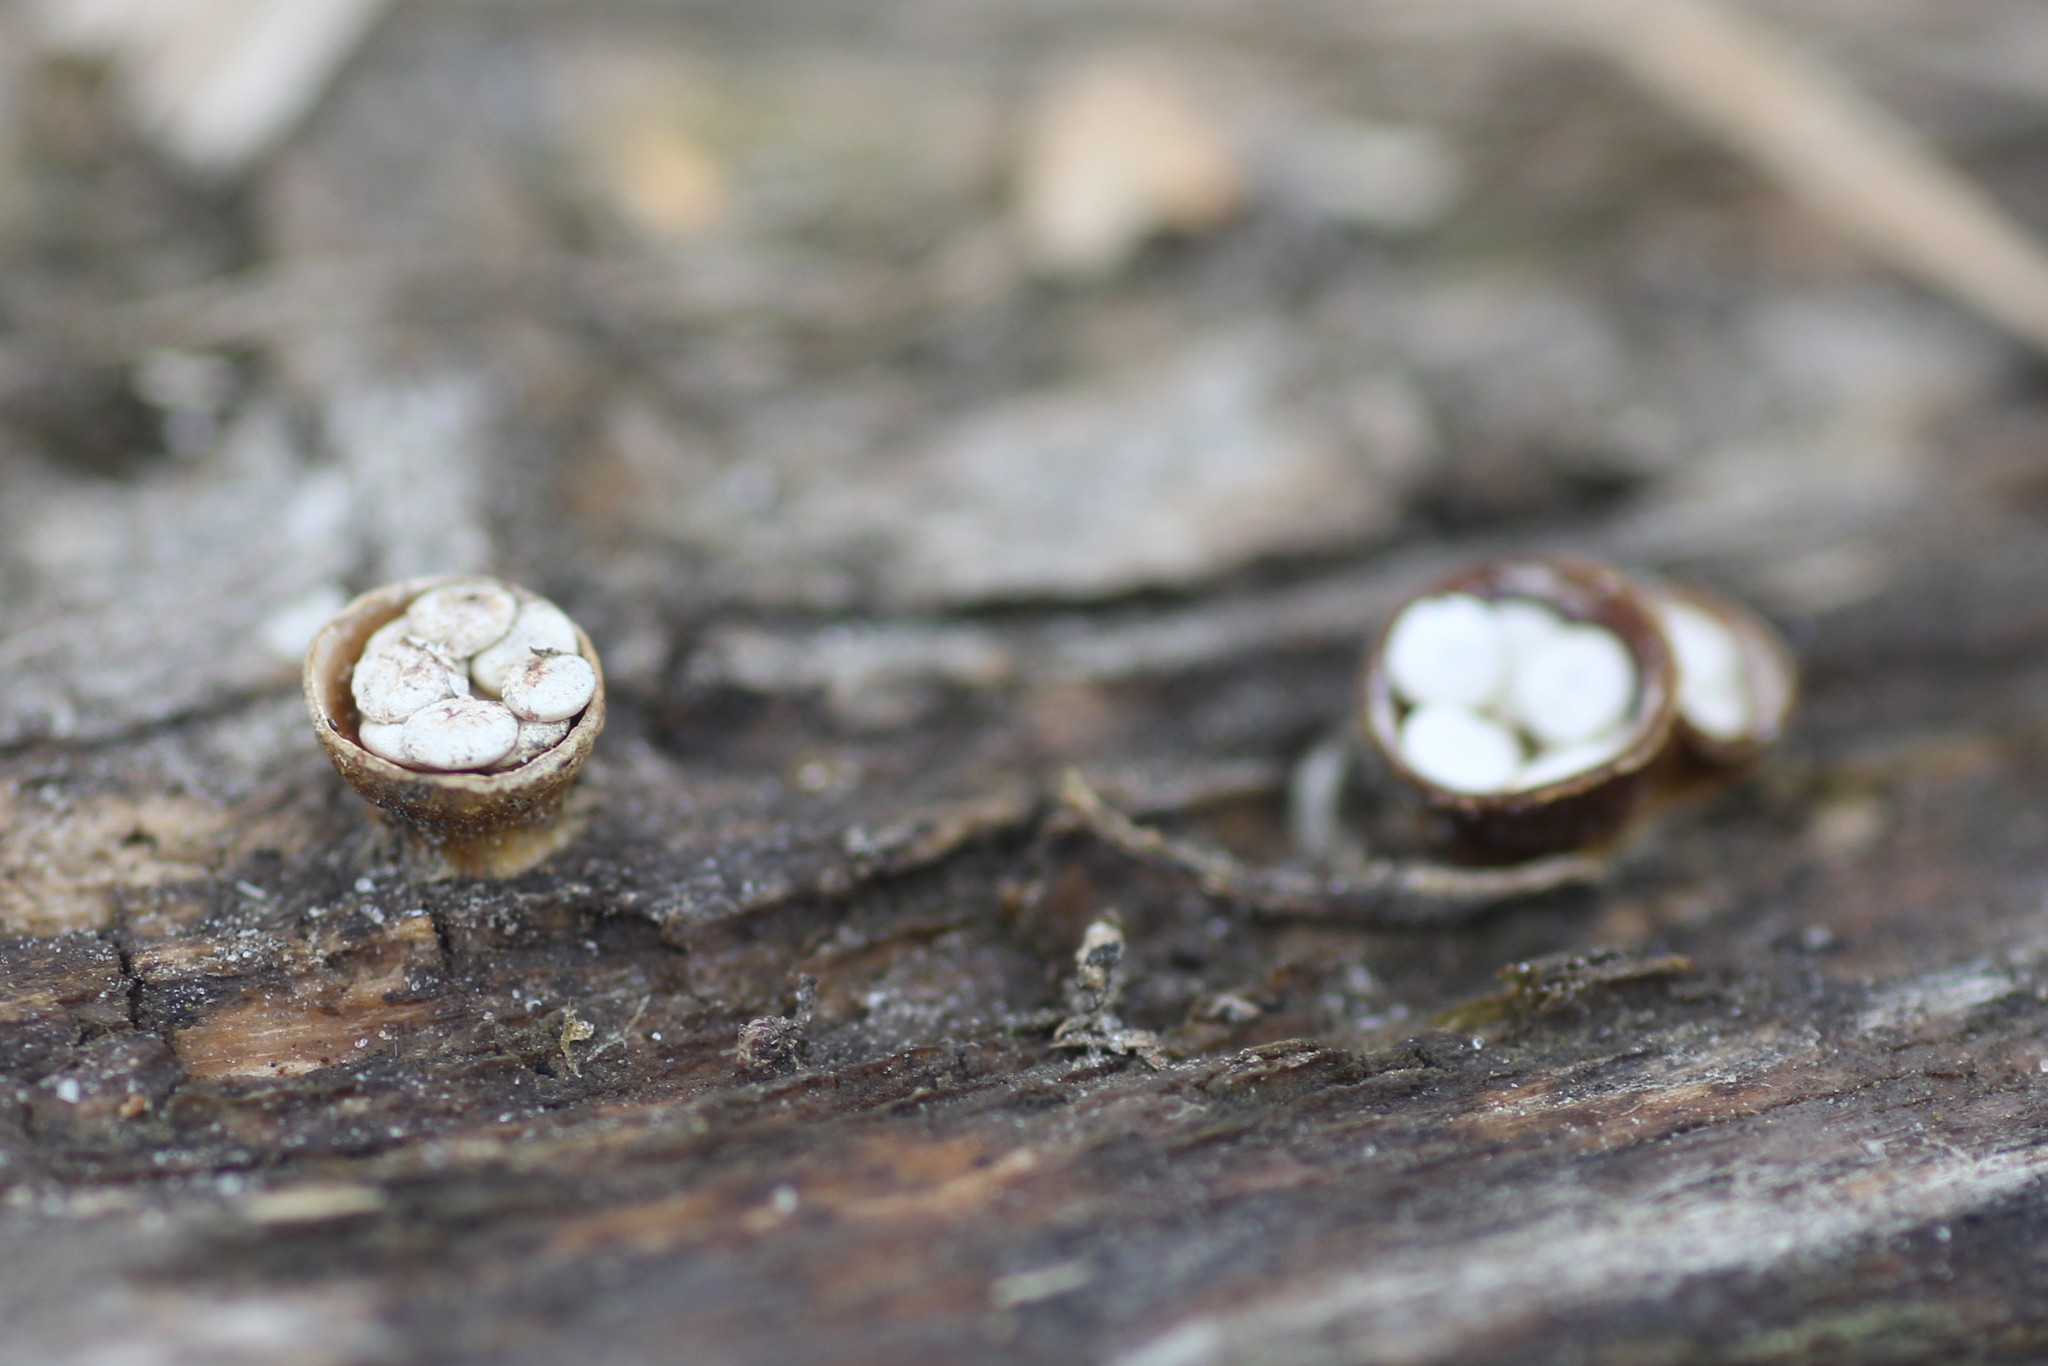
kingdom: Fungi
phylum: Basidiomycota
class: Agaricomycetes
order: Agaricales
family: Nidulariaceae
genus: Crucibulum
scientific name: Crucibulum laeve
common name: Common bird's nest
